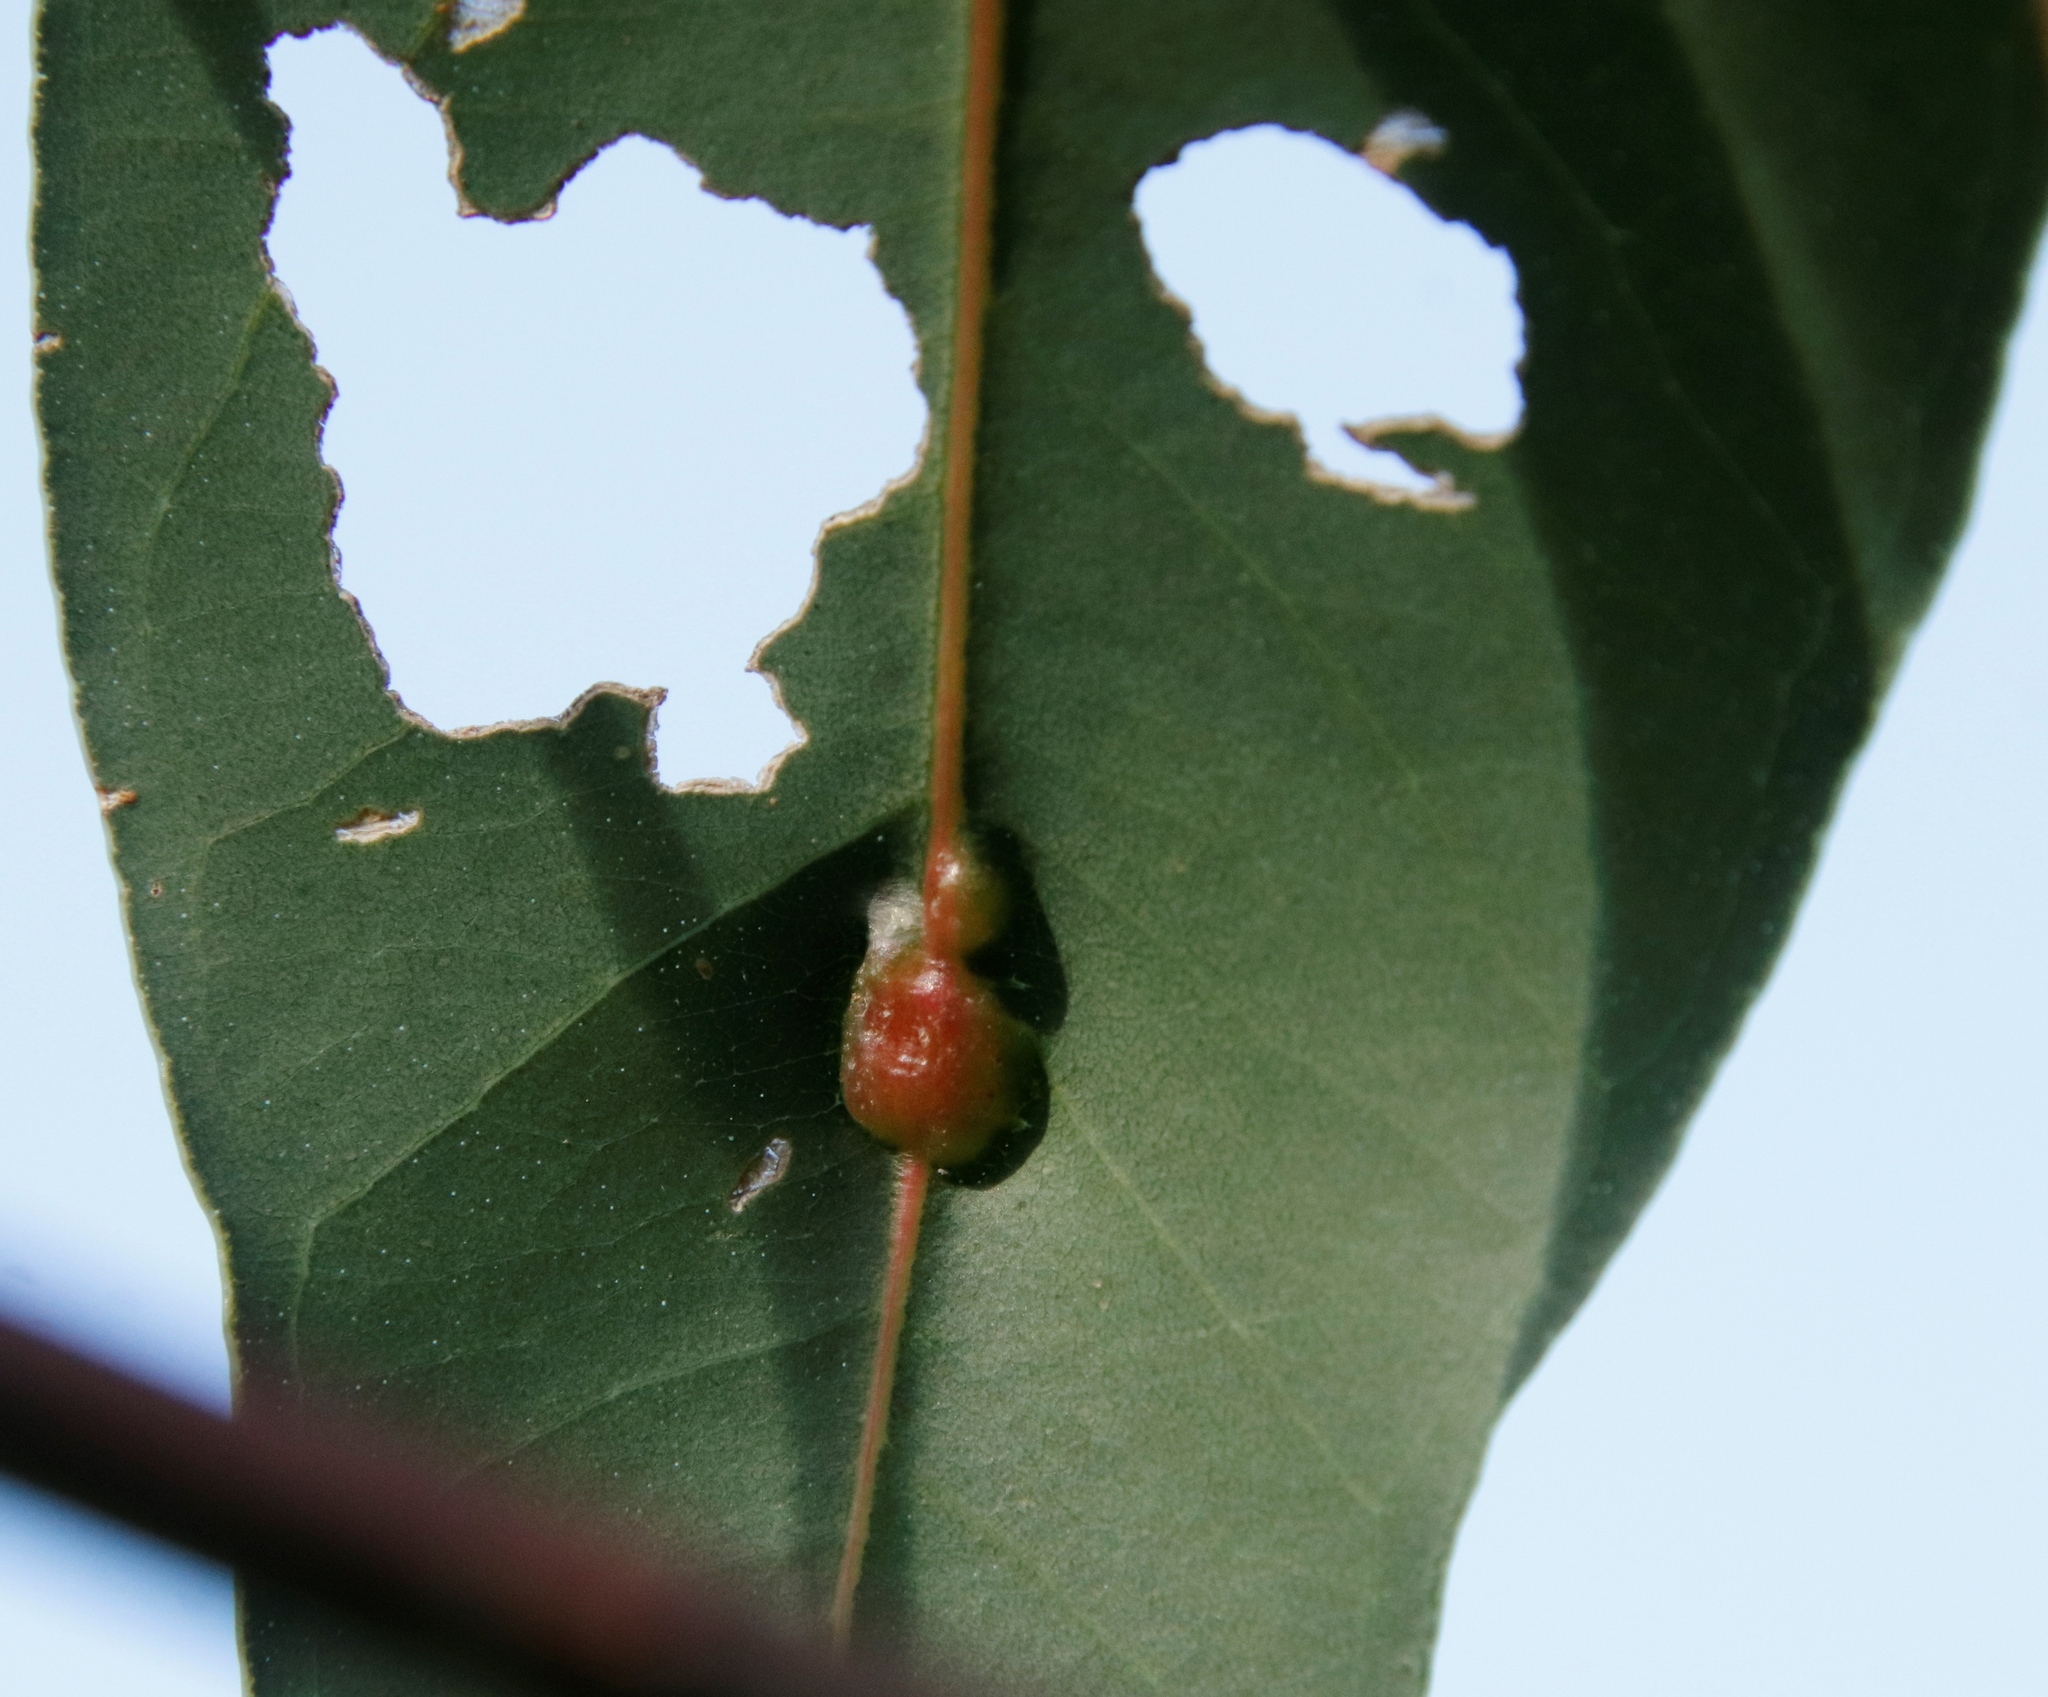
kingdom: Animalia
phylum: Arthropoda
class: Insecta
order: Hymenoptera
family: Eulophidae
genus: Leptocybe
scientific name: Leptocybe invasa
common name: Gall wasp
